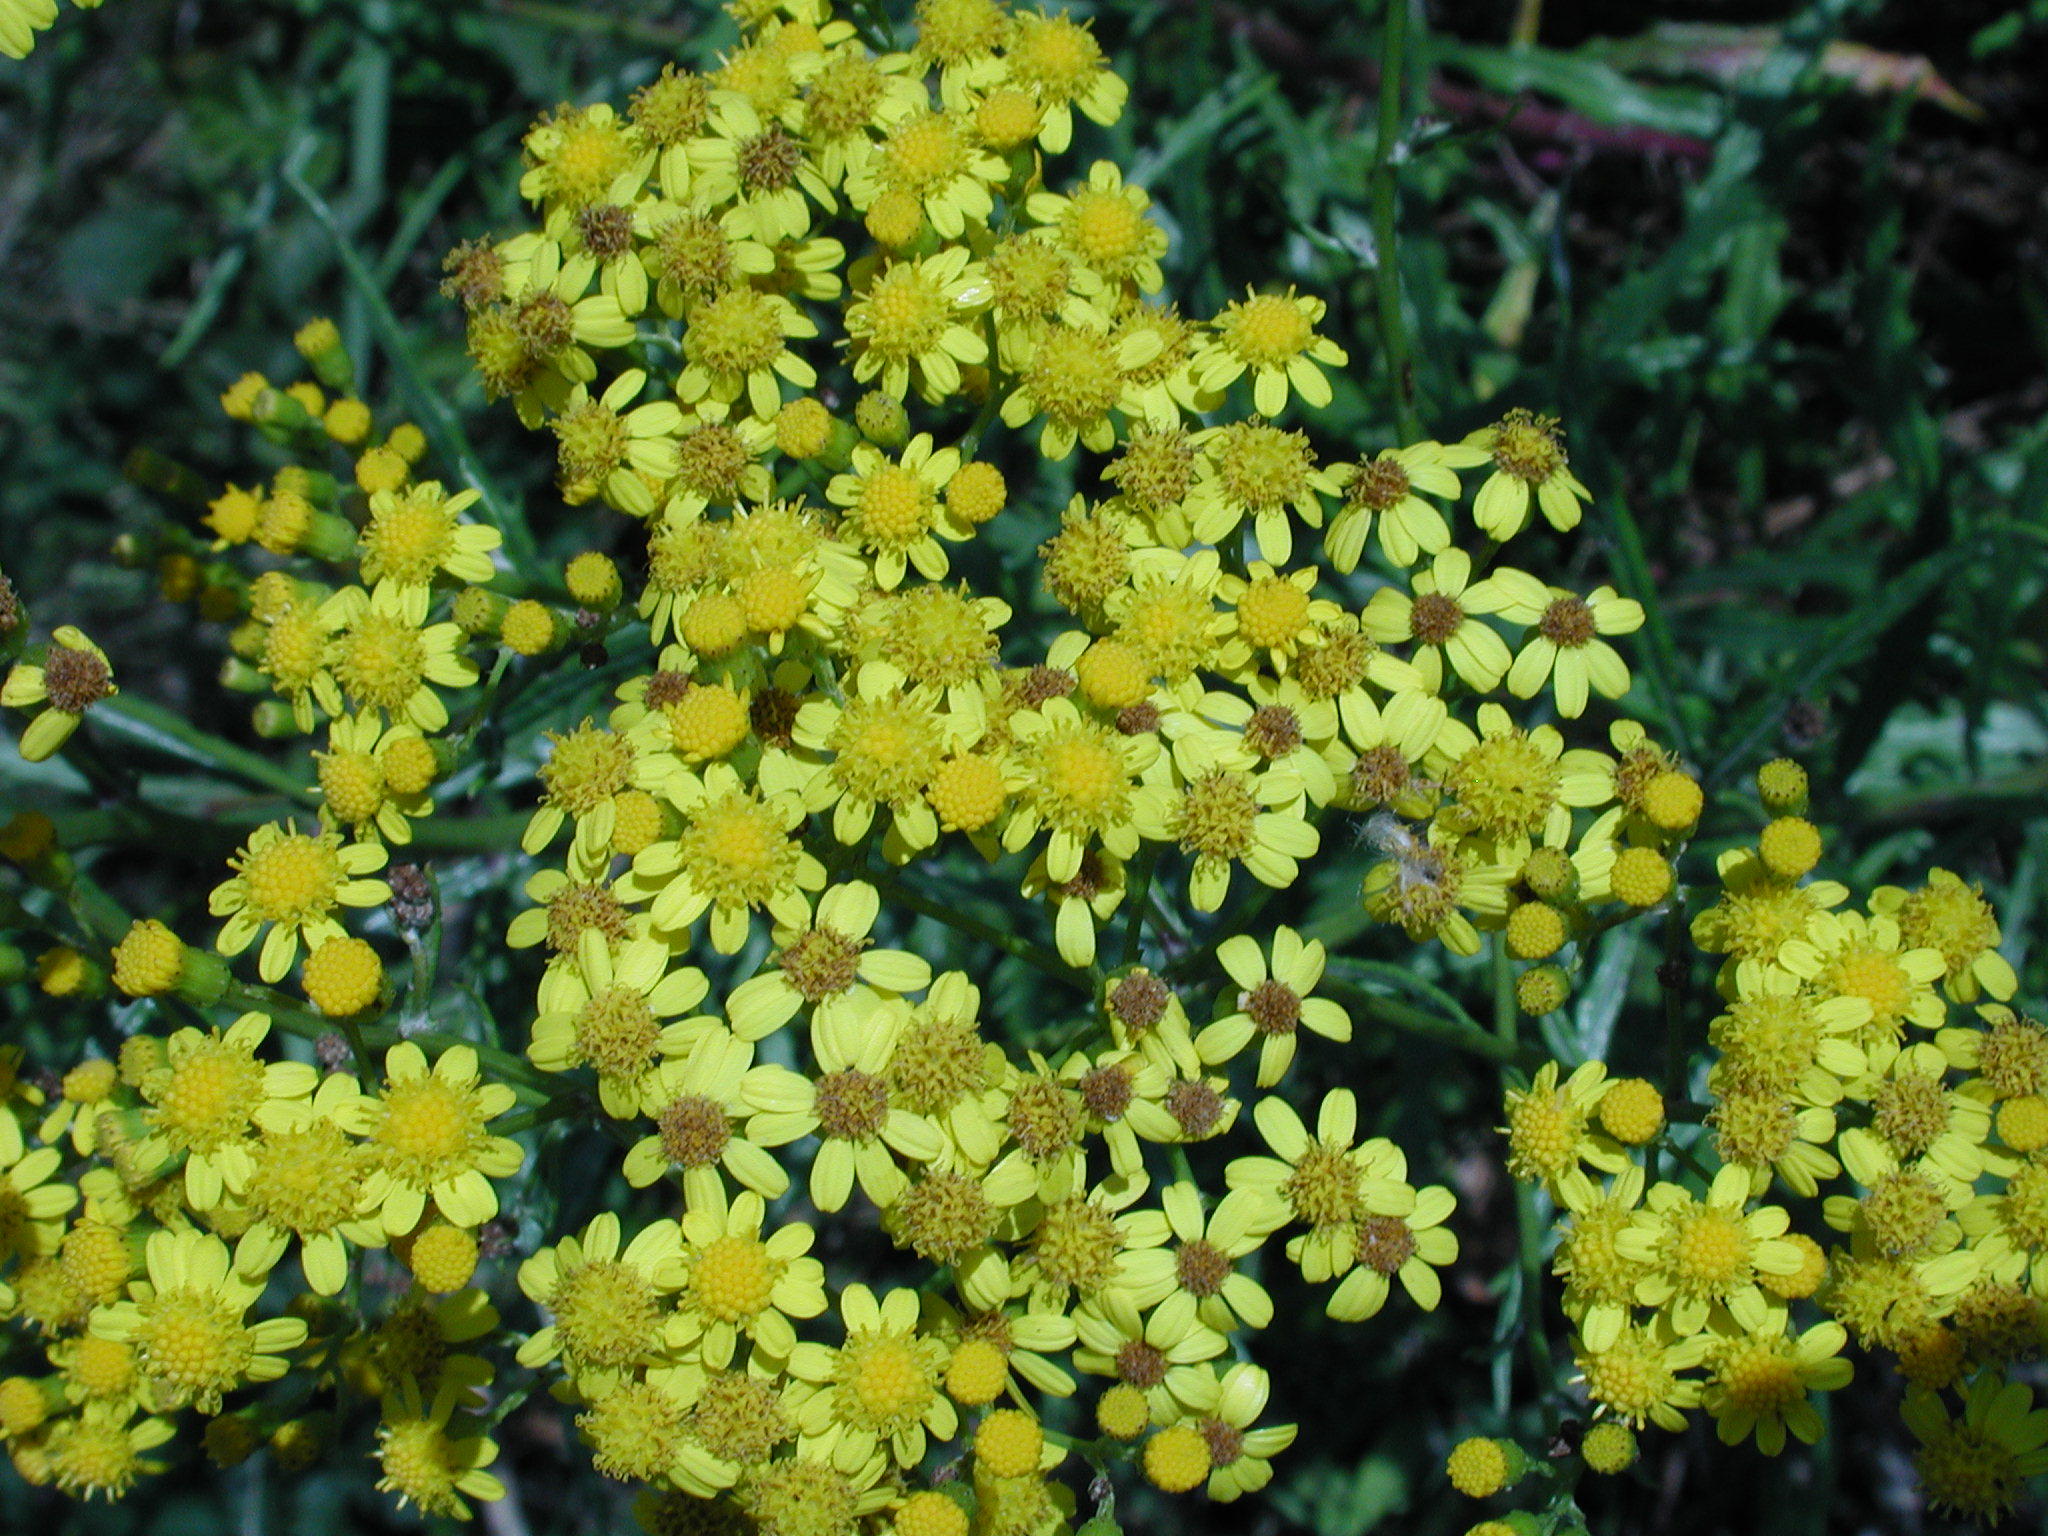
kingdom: Plantae
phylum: Tracheophyta
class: Magnoliopsida
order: Asterales
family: Asteraceae
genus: Senecio
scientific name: Senecio polyanthemoides
